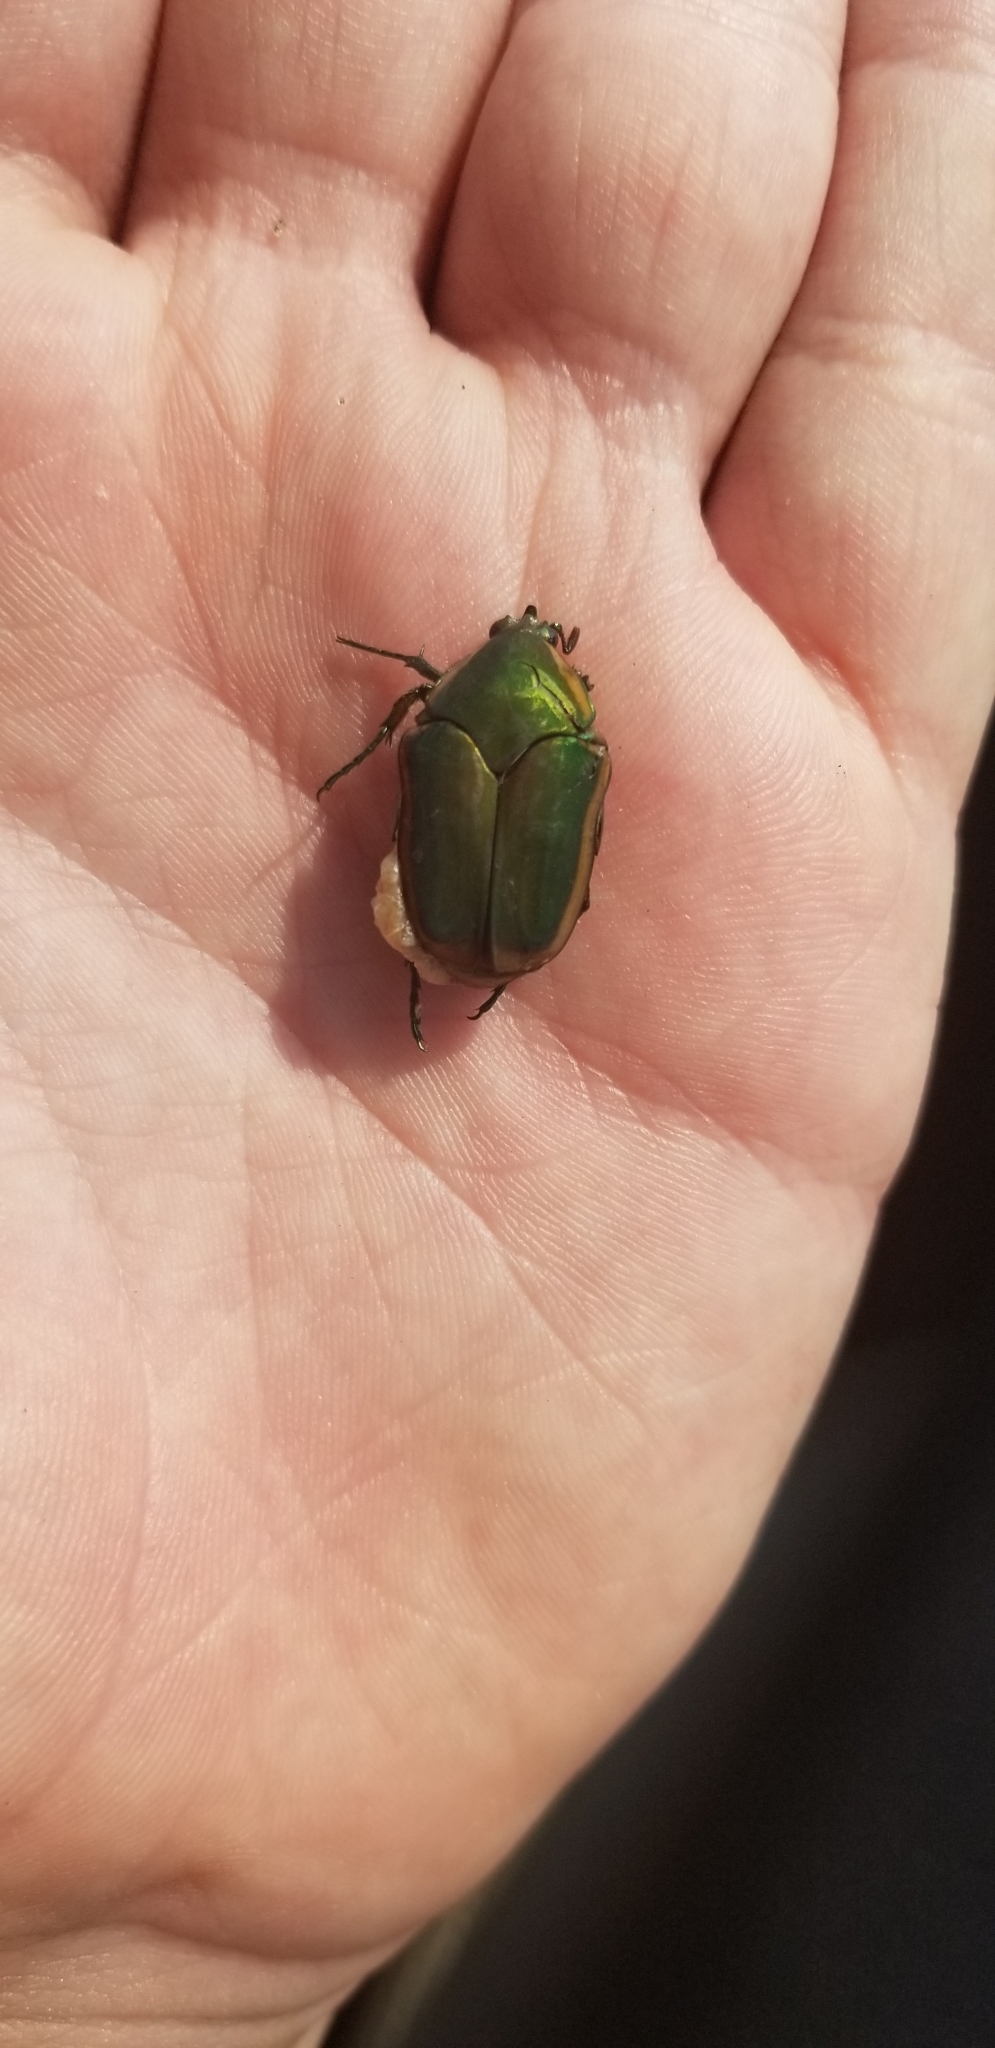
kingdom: Animalia
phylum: Arthropoda
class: Insecta
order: Coleoptera
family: Scarabaeidae
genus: Cotinis
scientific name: Cotinis nitida
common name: Common green june beetle
